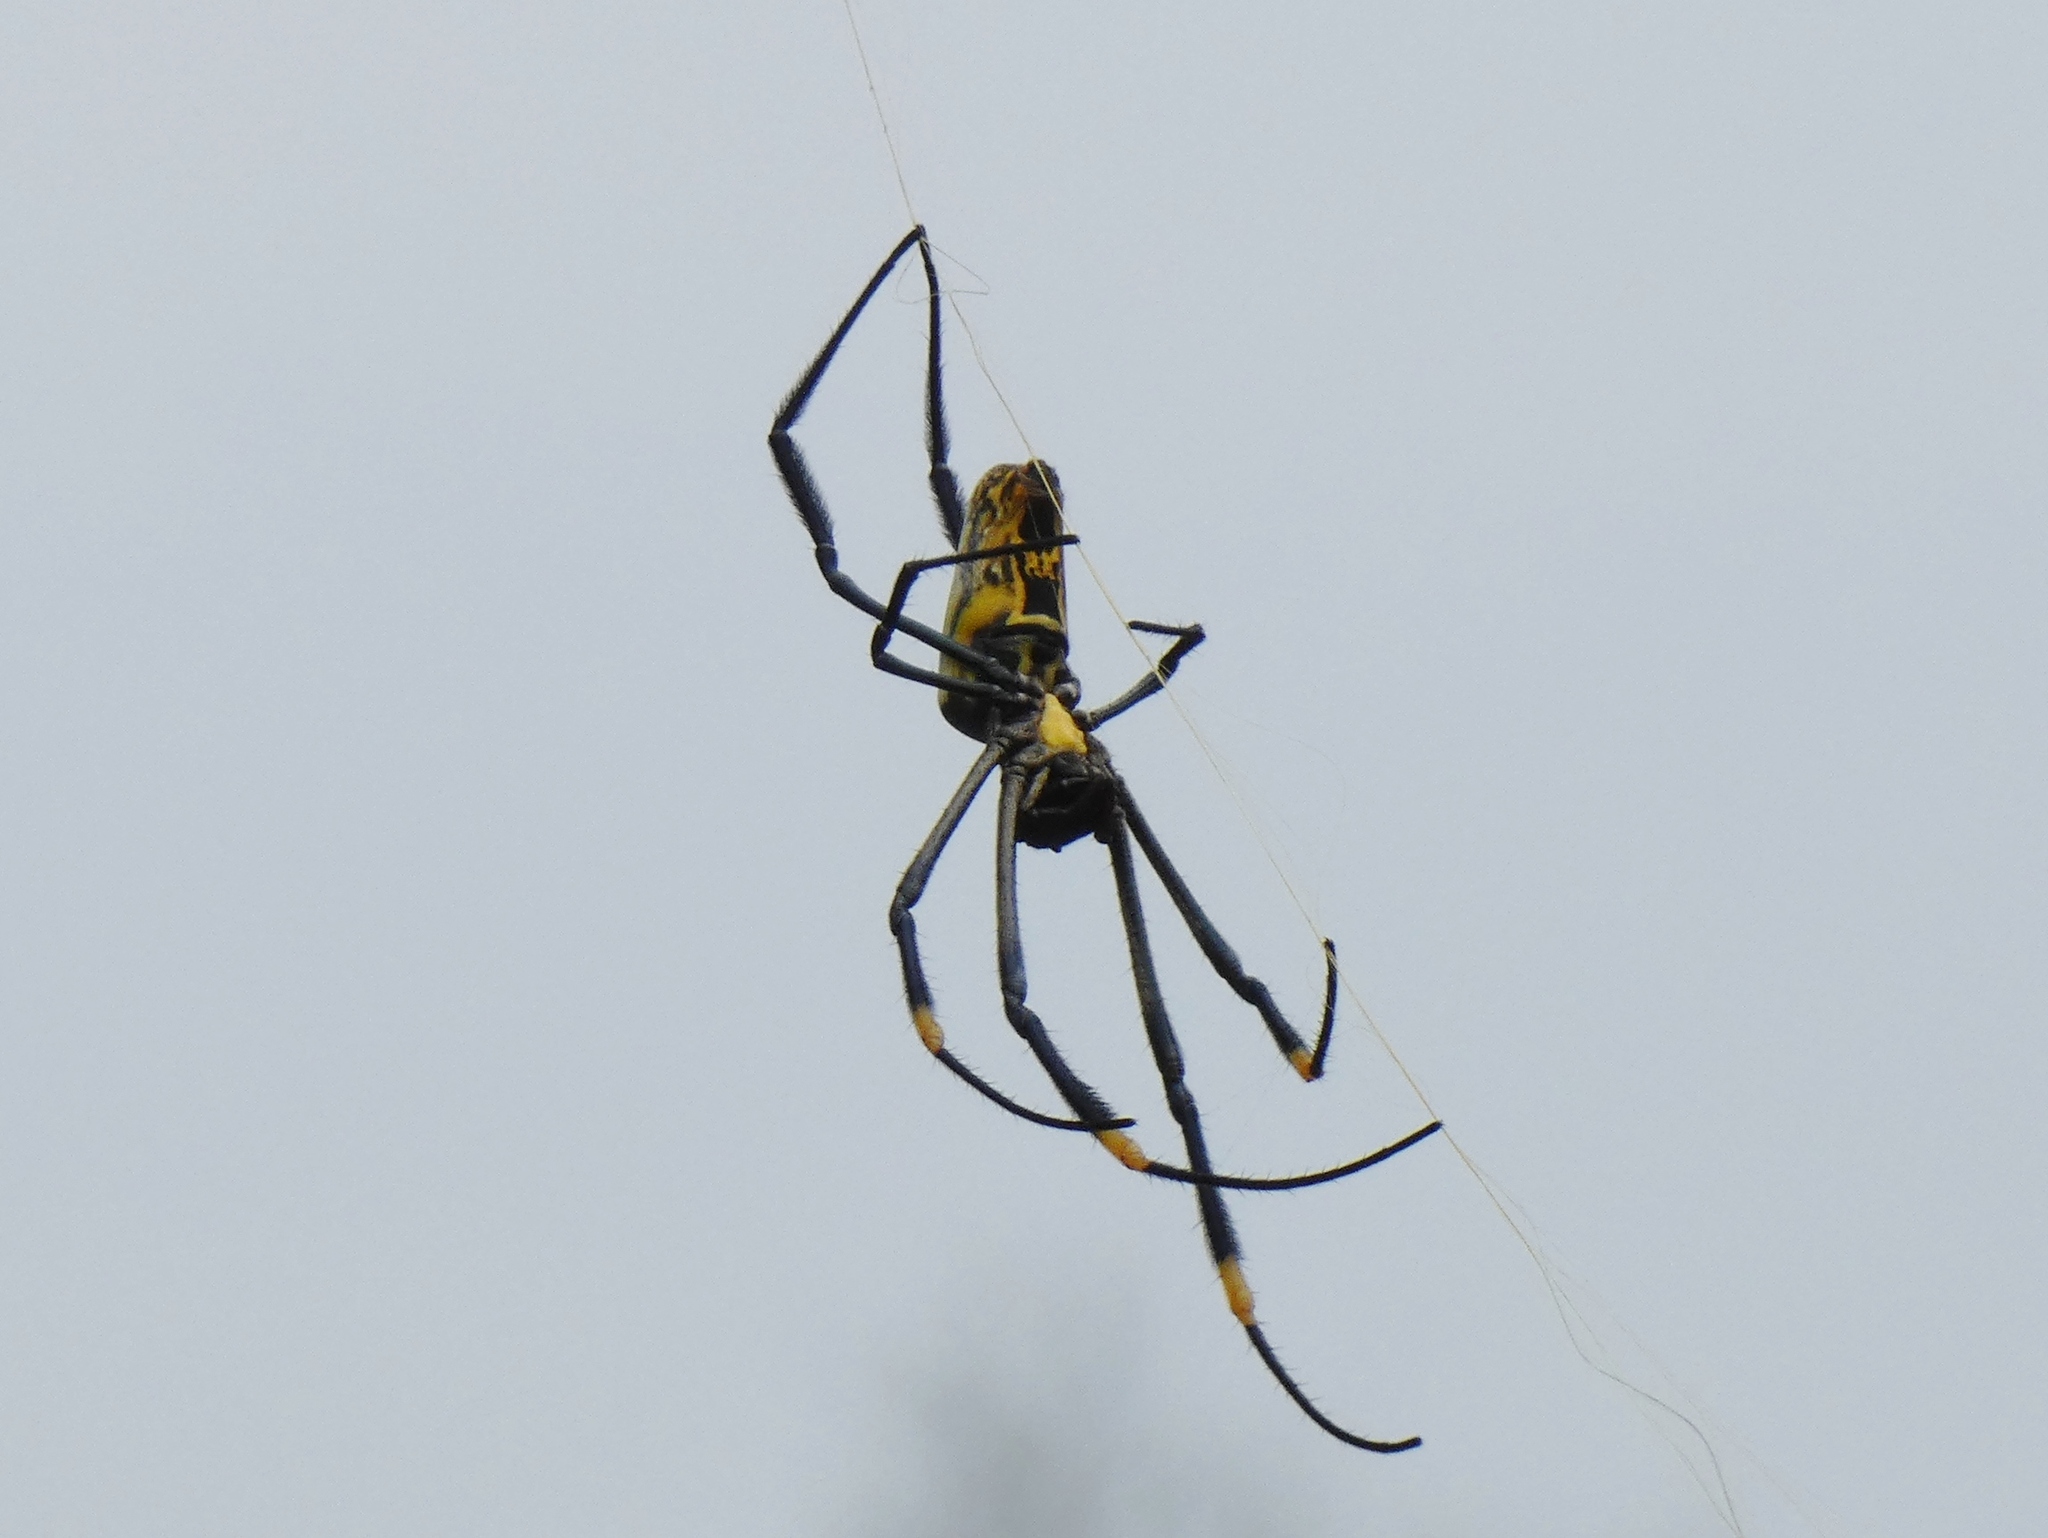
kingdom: Animalia
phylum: Arthropoda
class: Arachnida
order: Araneae
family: Araneidae
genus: Trichonephila
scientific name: Trichonephila fenestrata
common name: Hairy golden orb weaver
